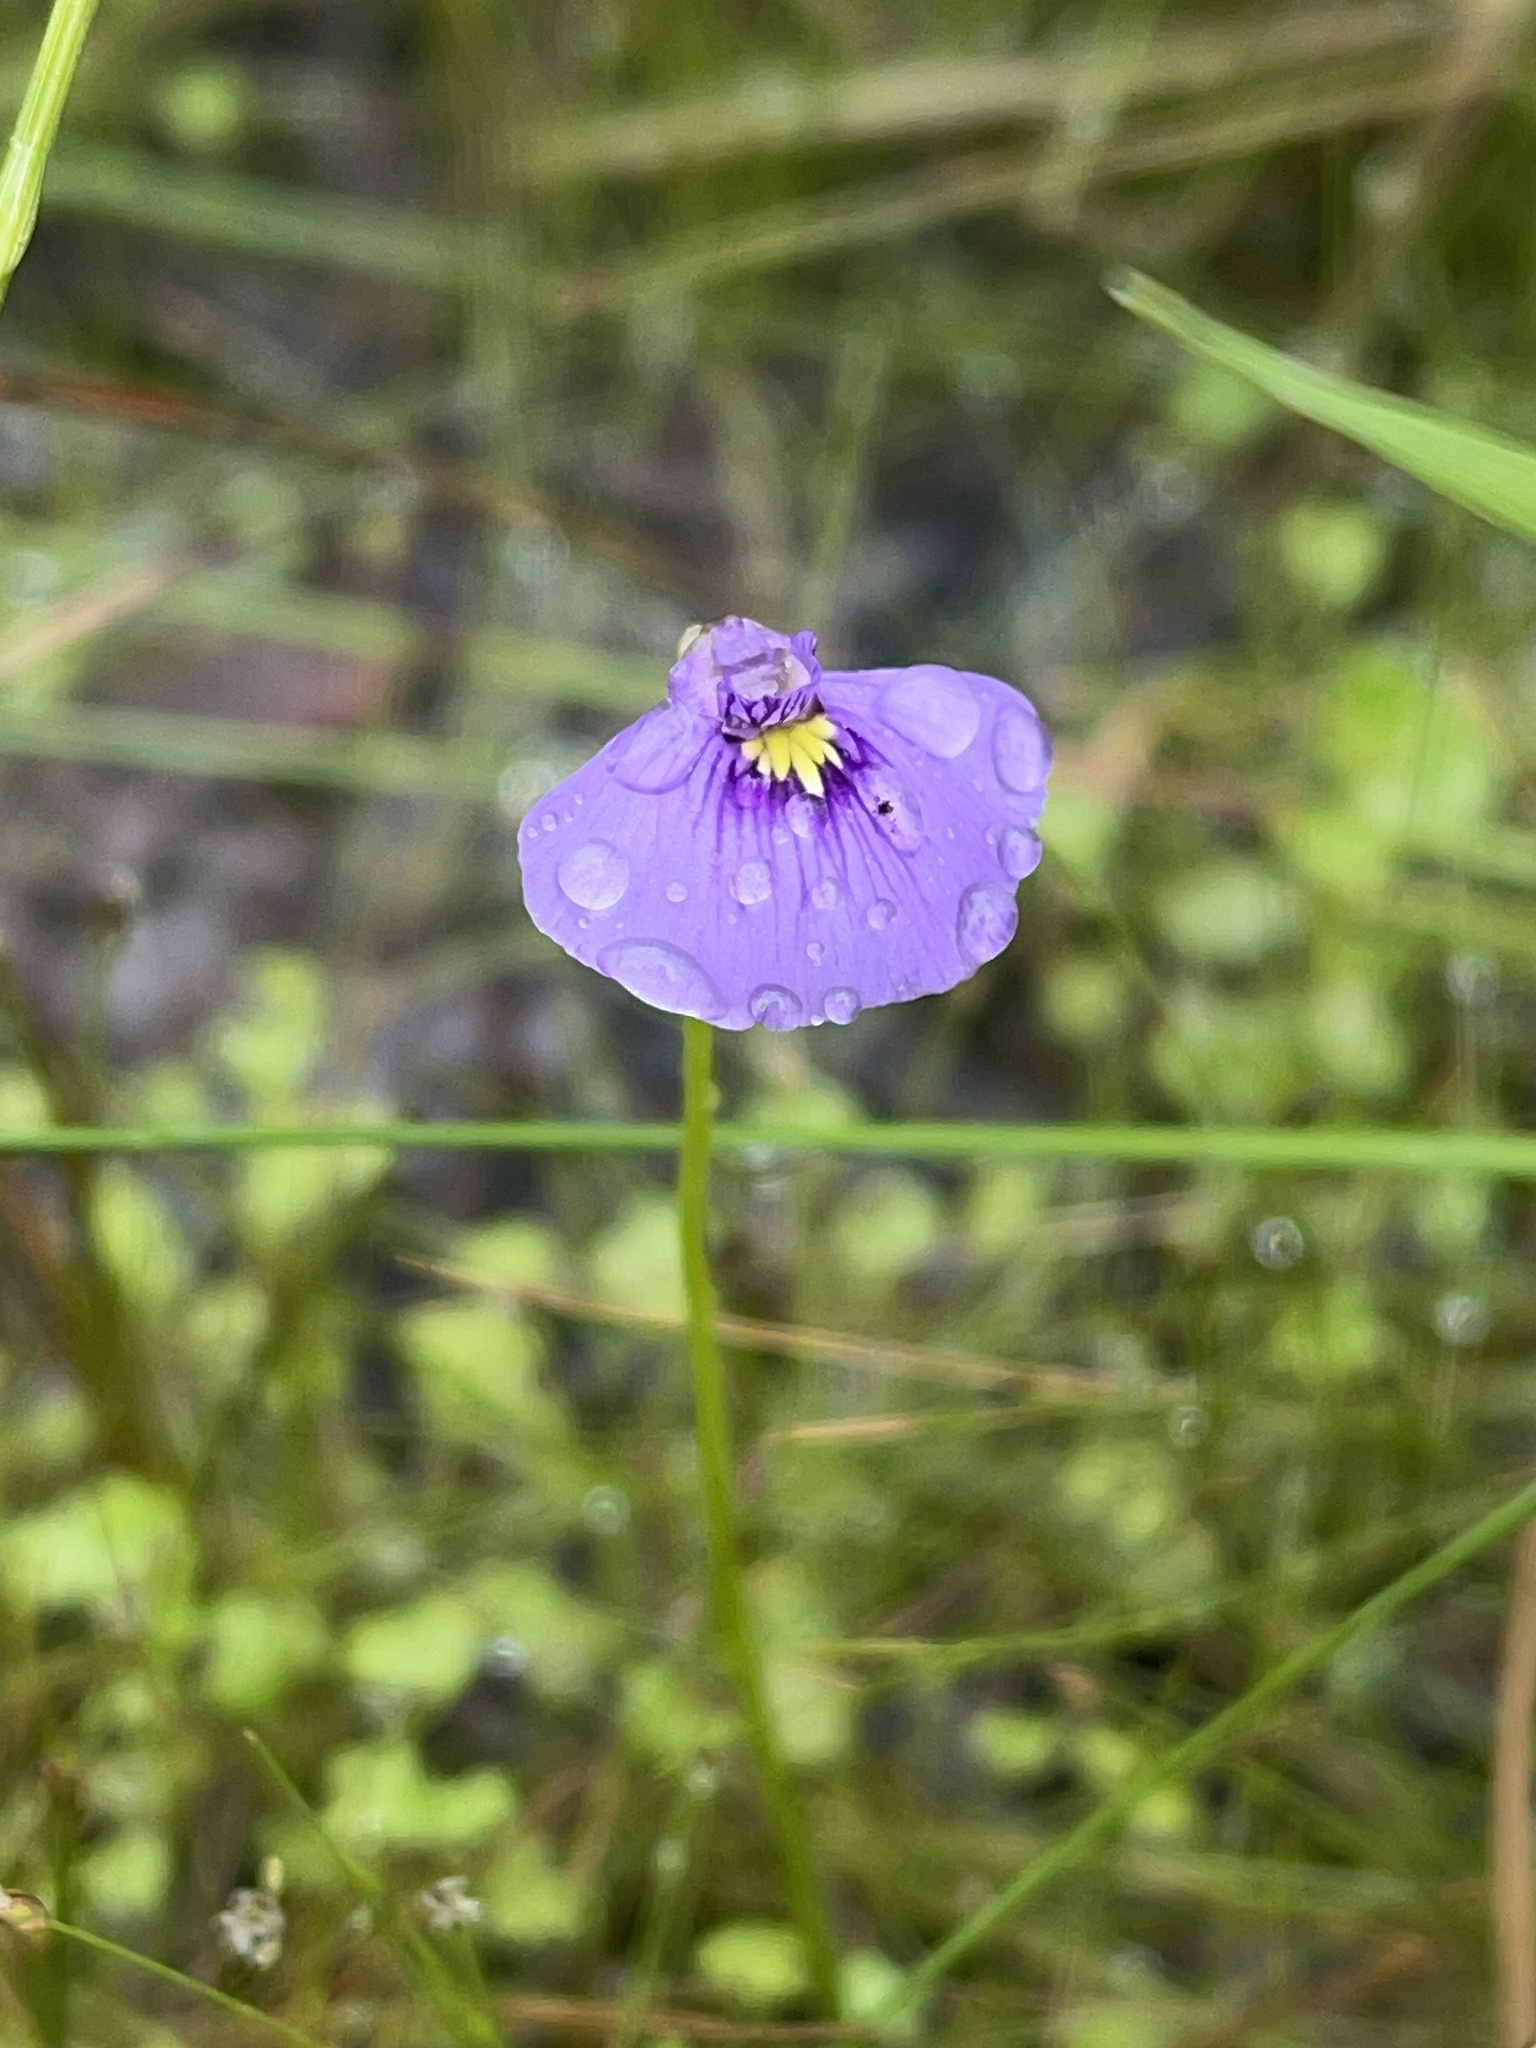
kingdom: Plantae
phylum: Tracheophyta
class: Magnoliopsida
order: Lamiales
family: Lentibulariaceae
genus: Utricularia
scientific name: Utricularia beaugleholei
